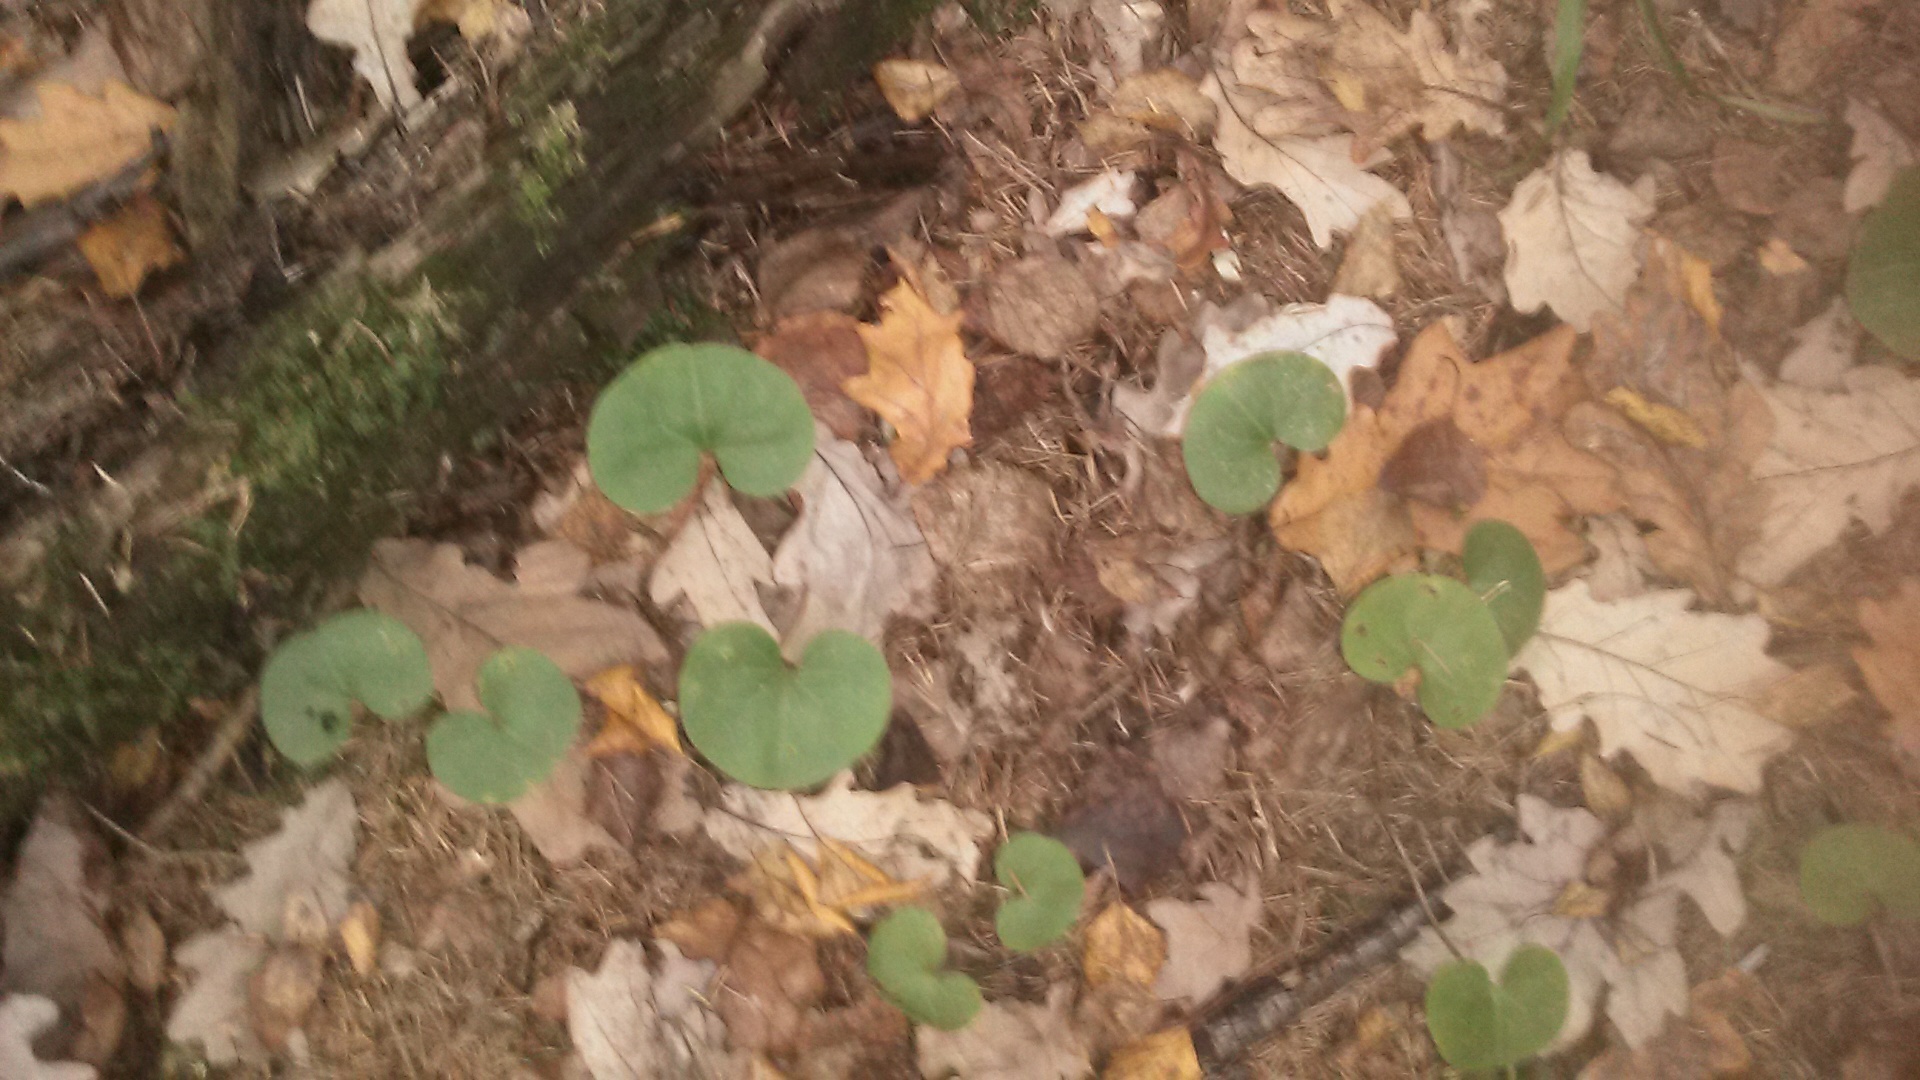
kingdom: Plantae
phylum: Tracheophyta
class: Magnoliopsida
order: Piperales
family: Aristolochiaceae
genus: Asarum
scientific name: Asarum europaeum
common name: Asarabacca
